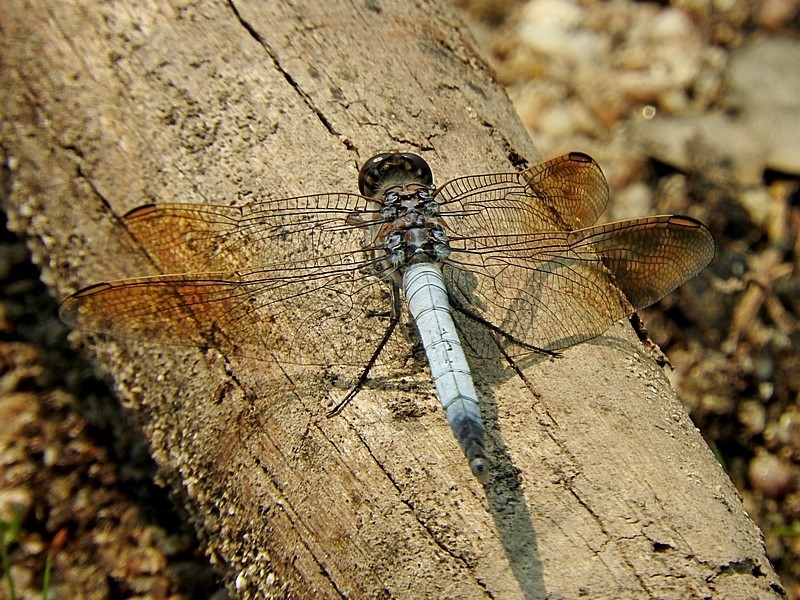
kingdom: Animalia
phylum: Arthropoda
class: Insecta
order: Odonata
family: Libellulidae
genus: Orthetrum
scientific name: Orthetrum caledonicum
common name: Blue skimmer
